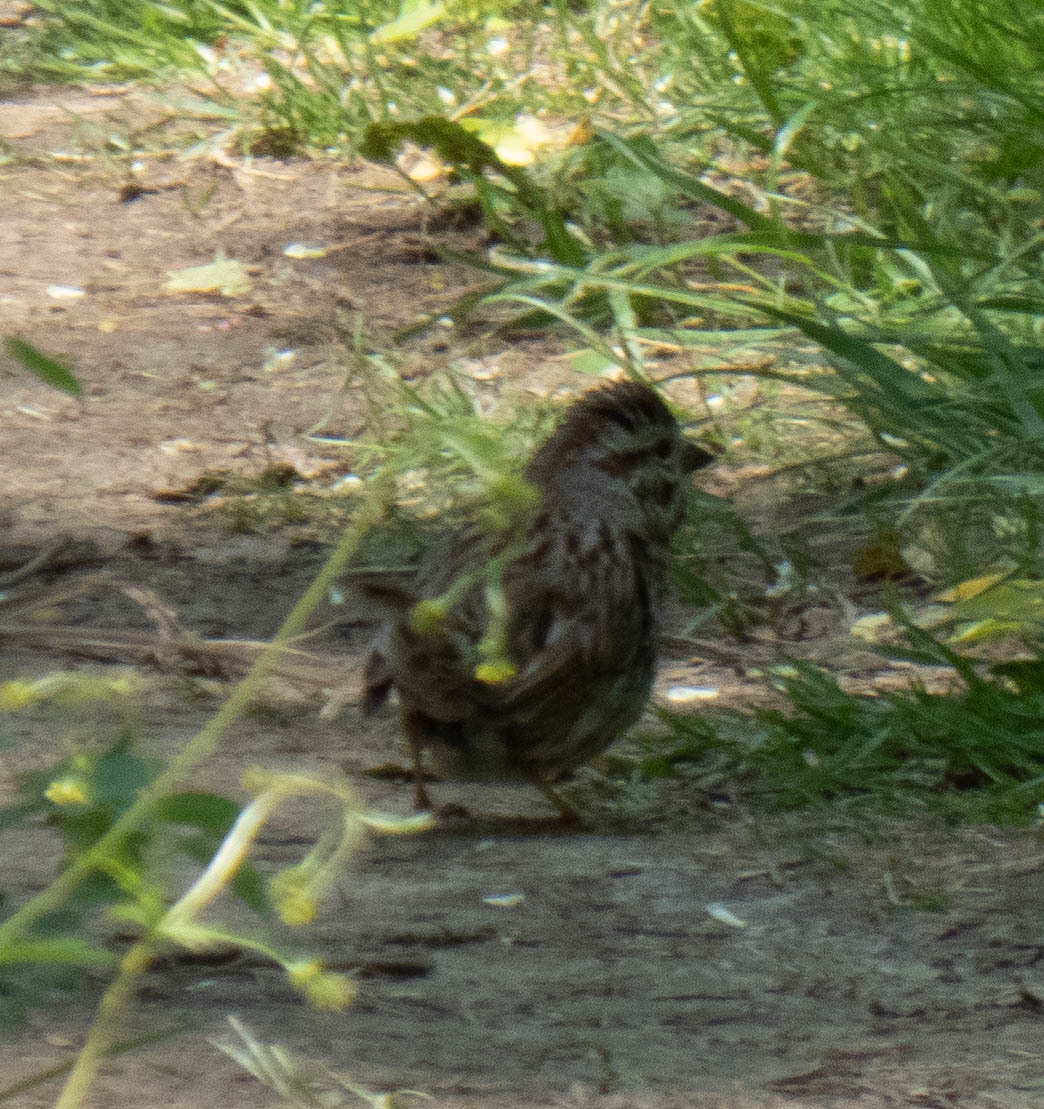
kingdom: Animalia
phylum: Chordata
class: Aves
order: Passeriformes
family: Passerellidae
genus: Melospiza
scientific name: Melospiza melodia
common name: Song sparrow
